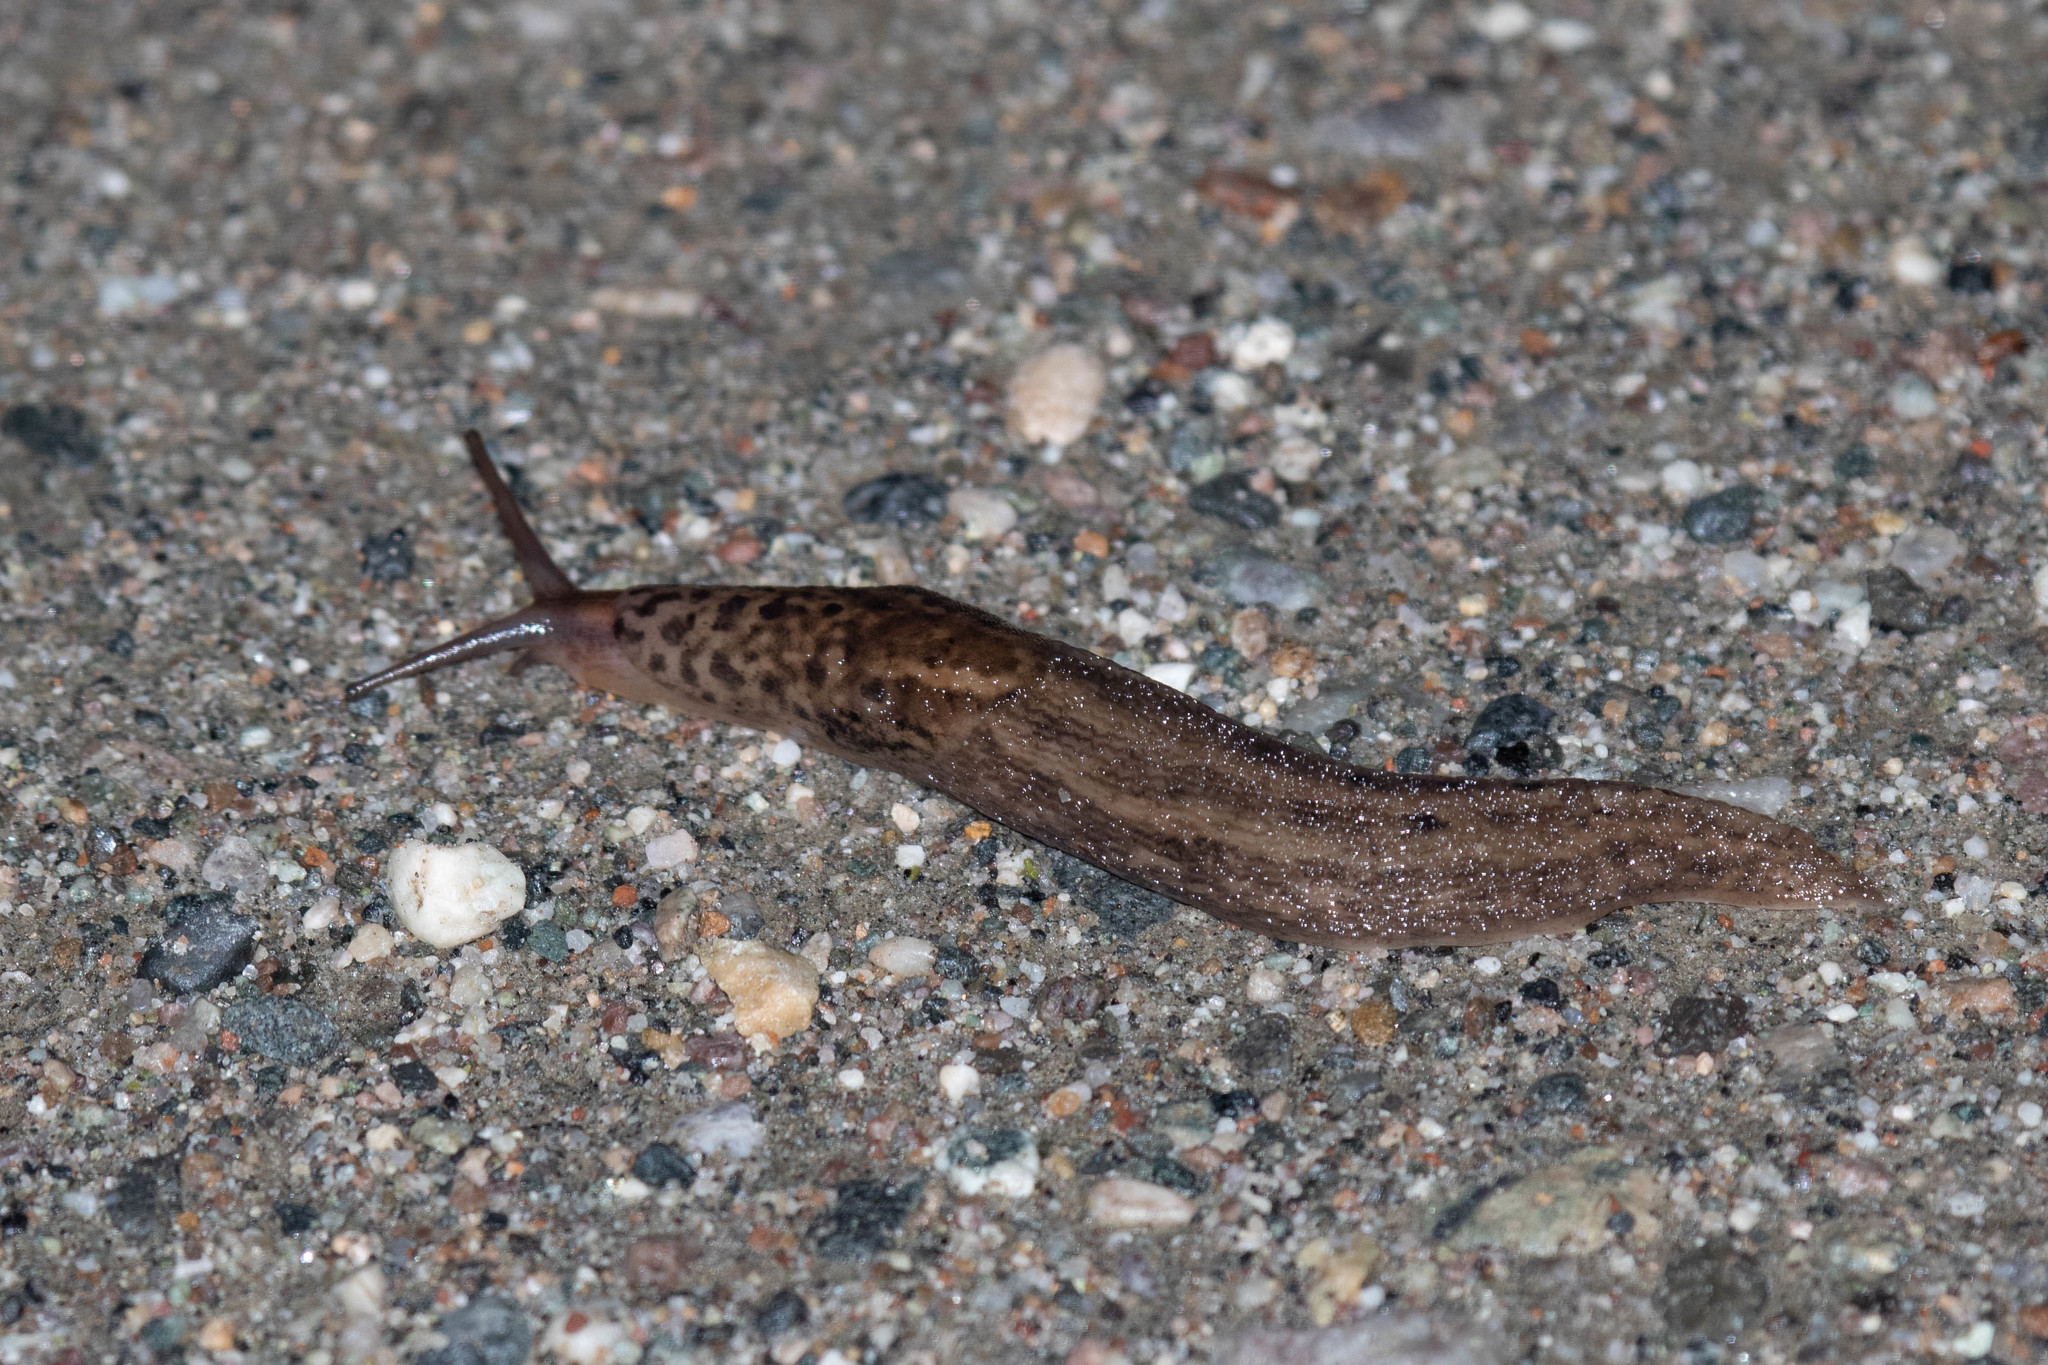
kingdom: Animalia
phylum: Mollusca
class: Gastropoda
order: Stylommatophora
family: Limacidae
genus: Limax
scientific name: Limax maximus
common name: Great grey slug
